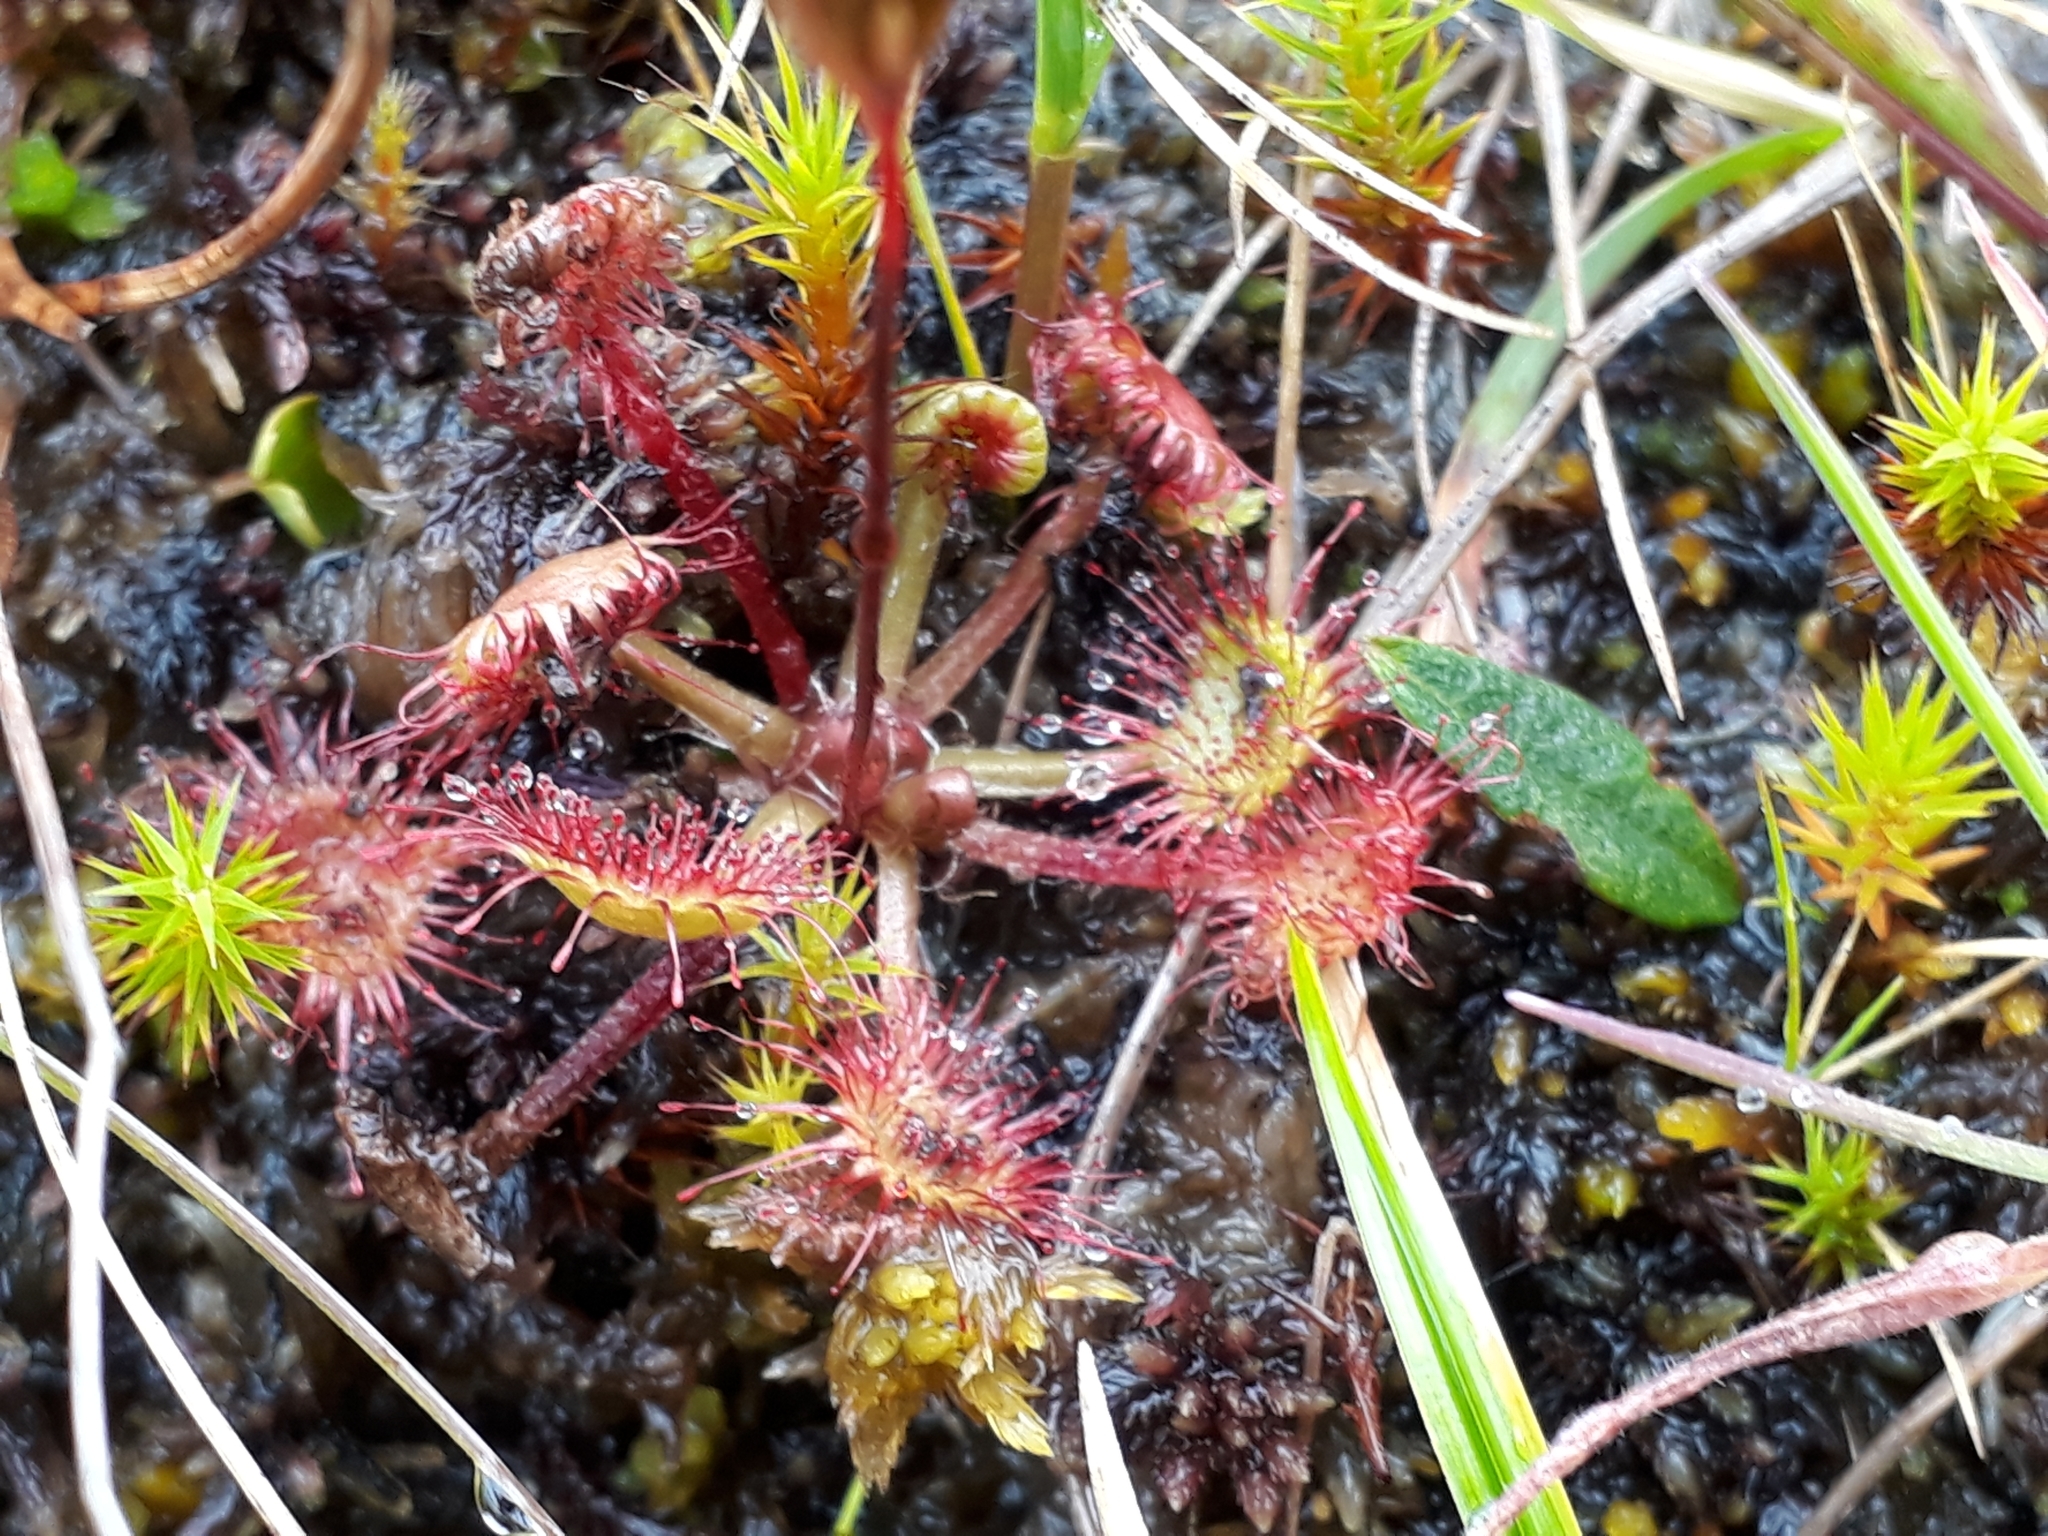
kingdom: Plantae
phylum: Tracheophyta
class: Magnoliopsida
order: Caryophyllales
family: Droseraceae
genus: Drosera
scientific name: Drosera rotundifolia
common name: Round-leaved sundew
